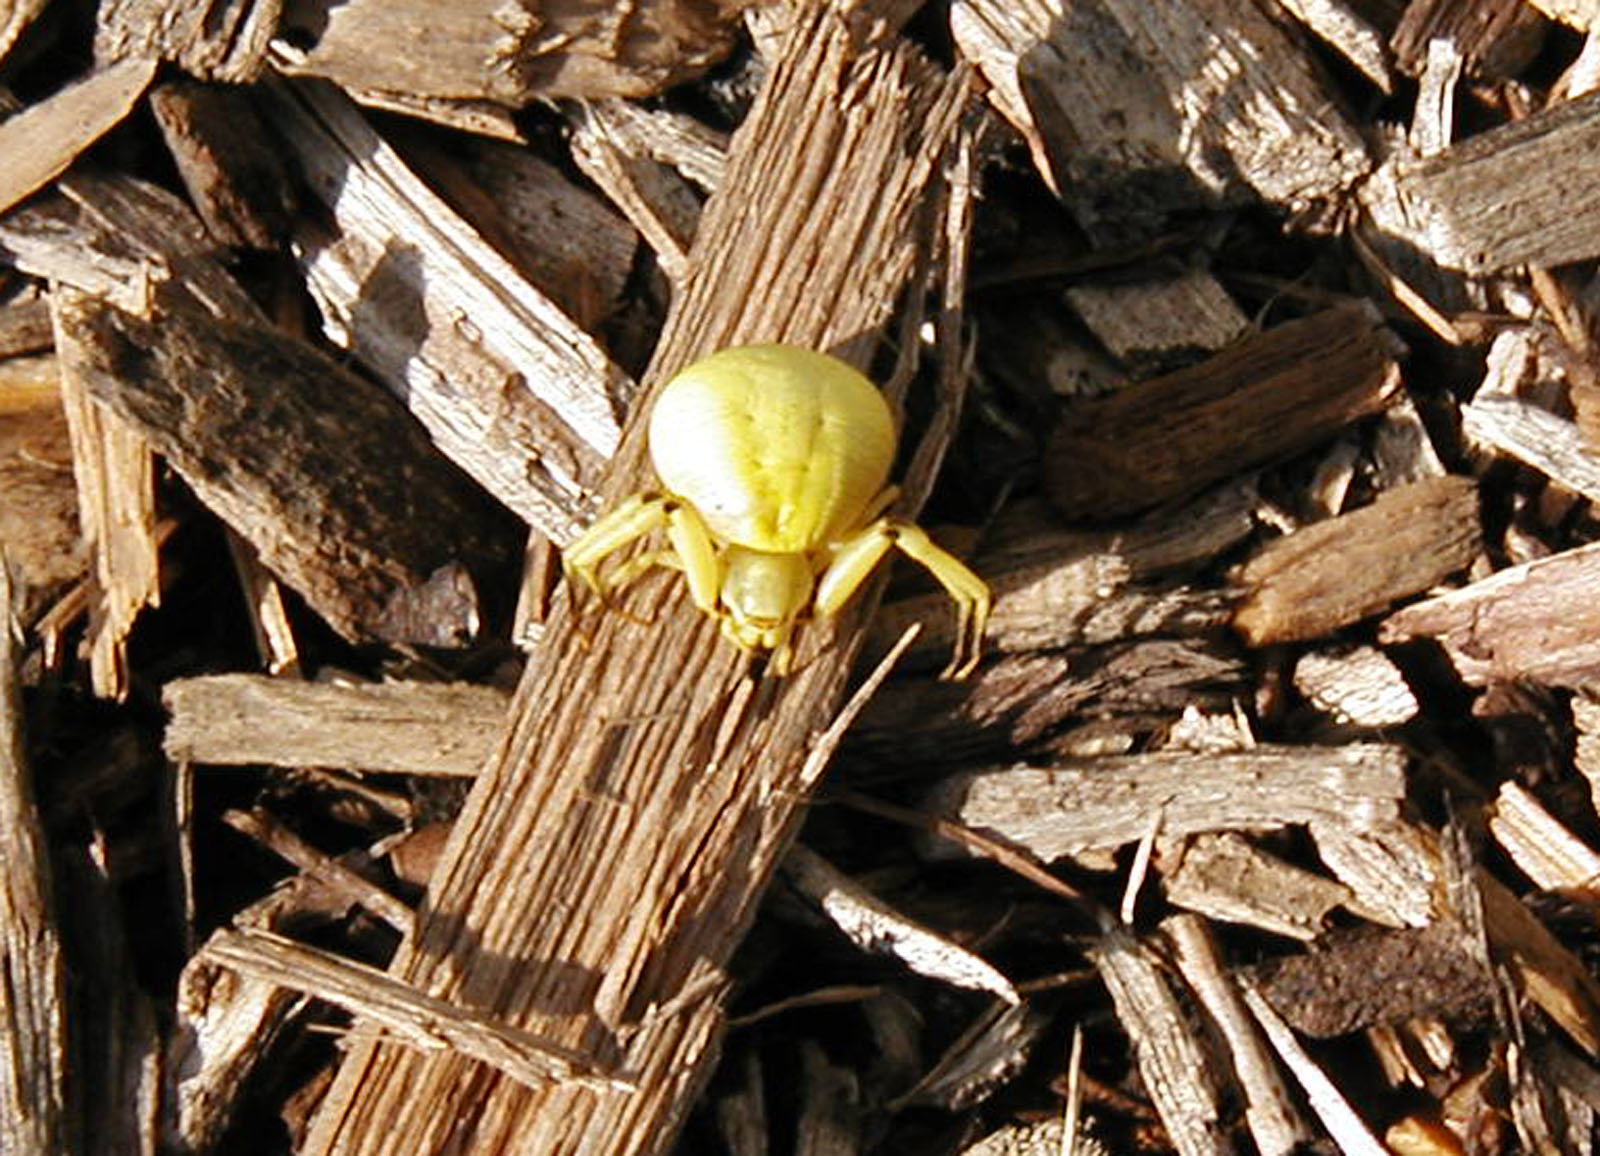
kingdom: Animalia
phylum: Arthropoda
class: Arachnida
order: Araneae
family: Thomisidae
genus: Misumenoides
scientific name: Misumenoides formosipes
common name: White-banded crab spider
